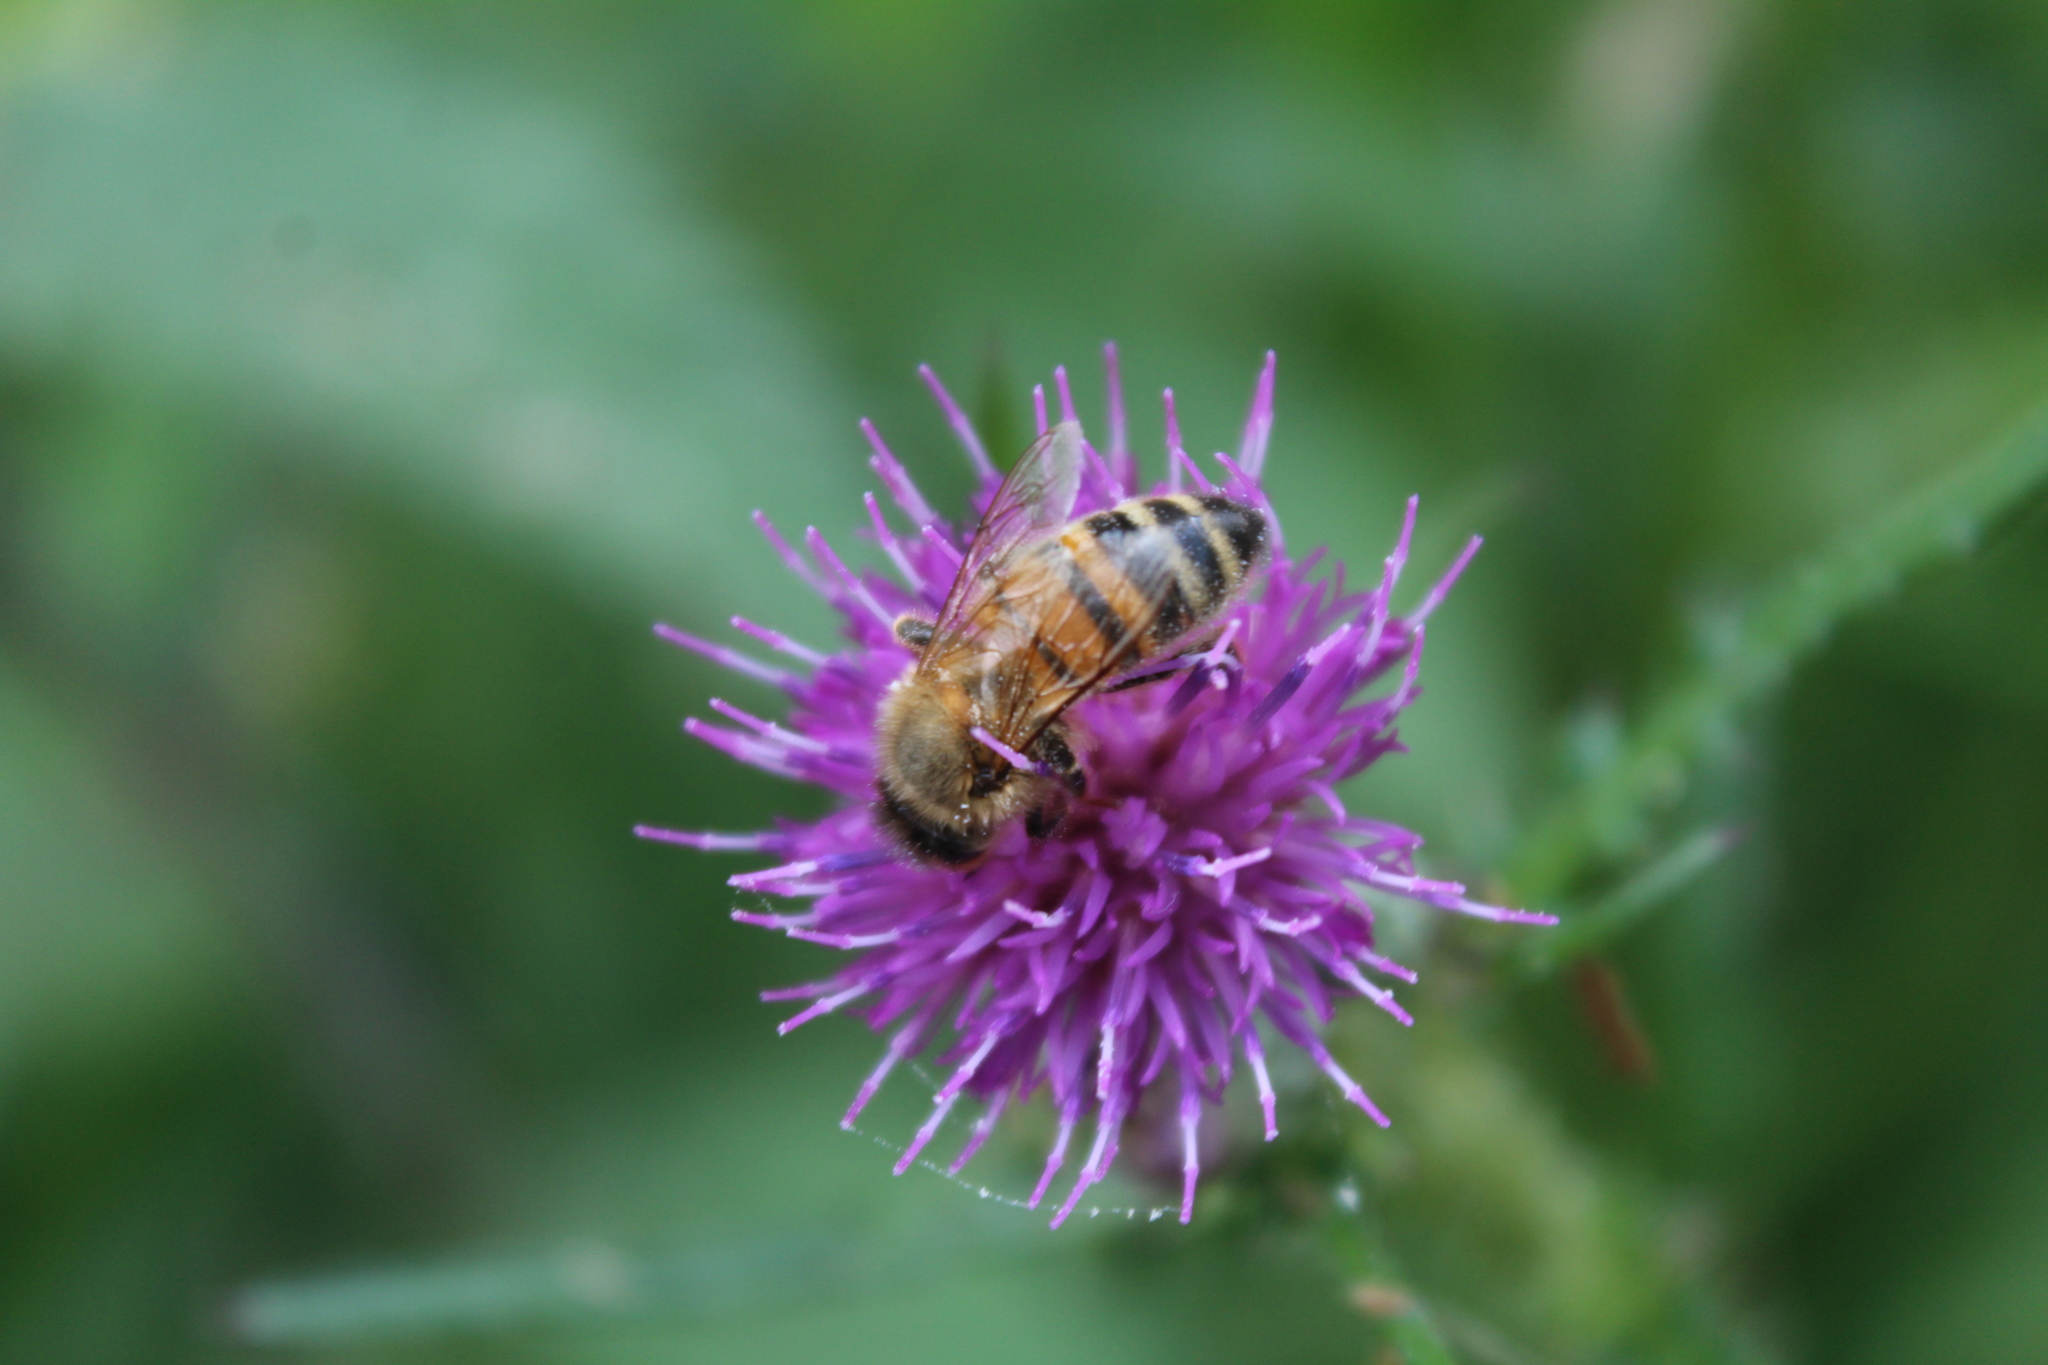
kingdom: Animalia
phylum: Arthropoda
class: Insecta
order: Hymenoptera
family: Apidae
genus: Apis
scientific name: Apis mellifera
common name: Honey bee
